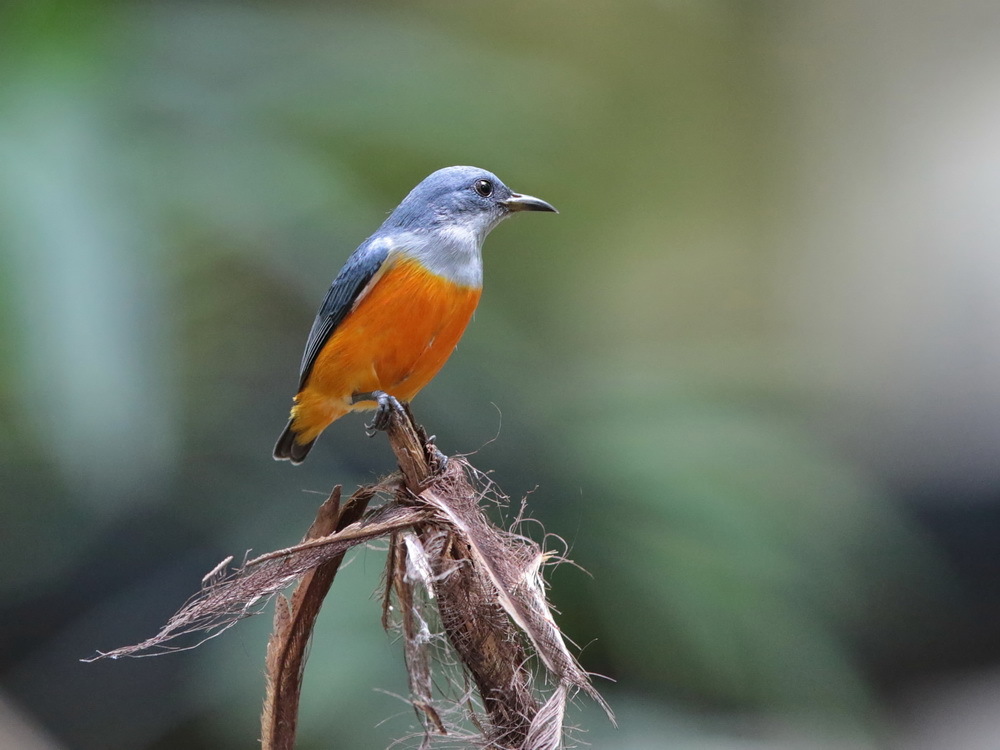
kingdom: Animalia
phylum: Chordata
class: Aves
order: Passeriformes
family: Dicaeidae
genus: Dicaeum
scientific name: Dicaeum trigonostigma
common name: Orange-bellied flowerpecker
